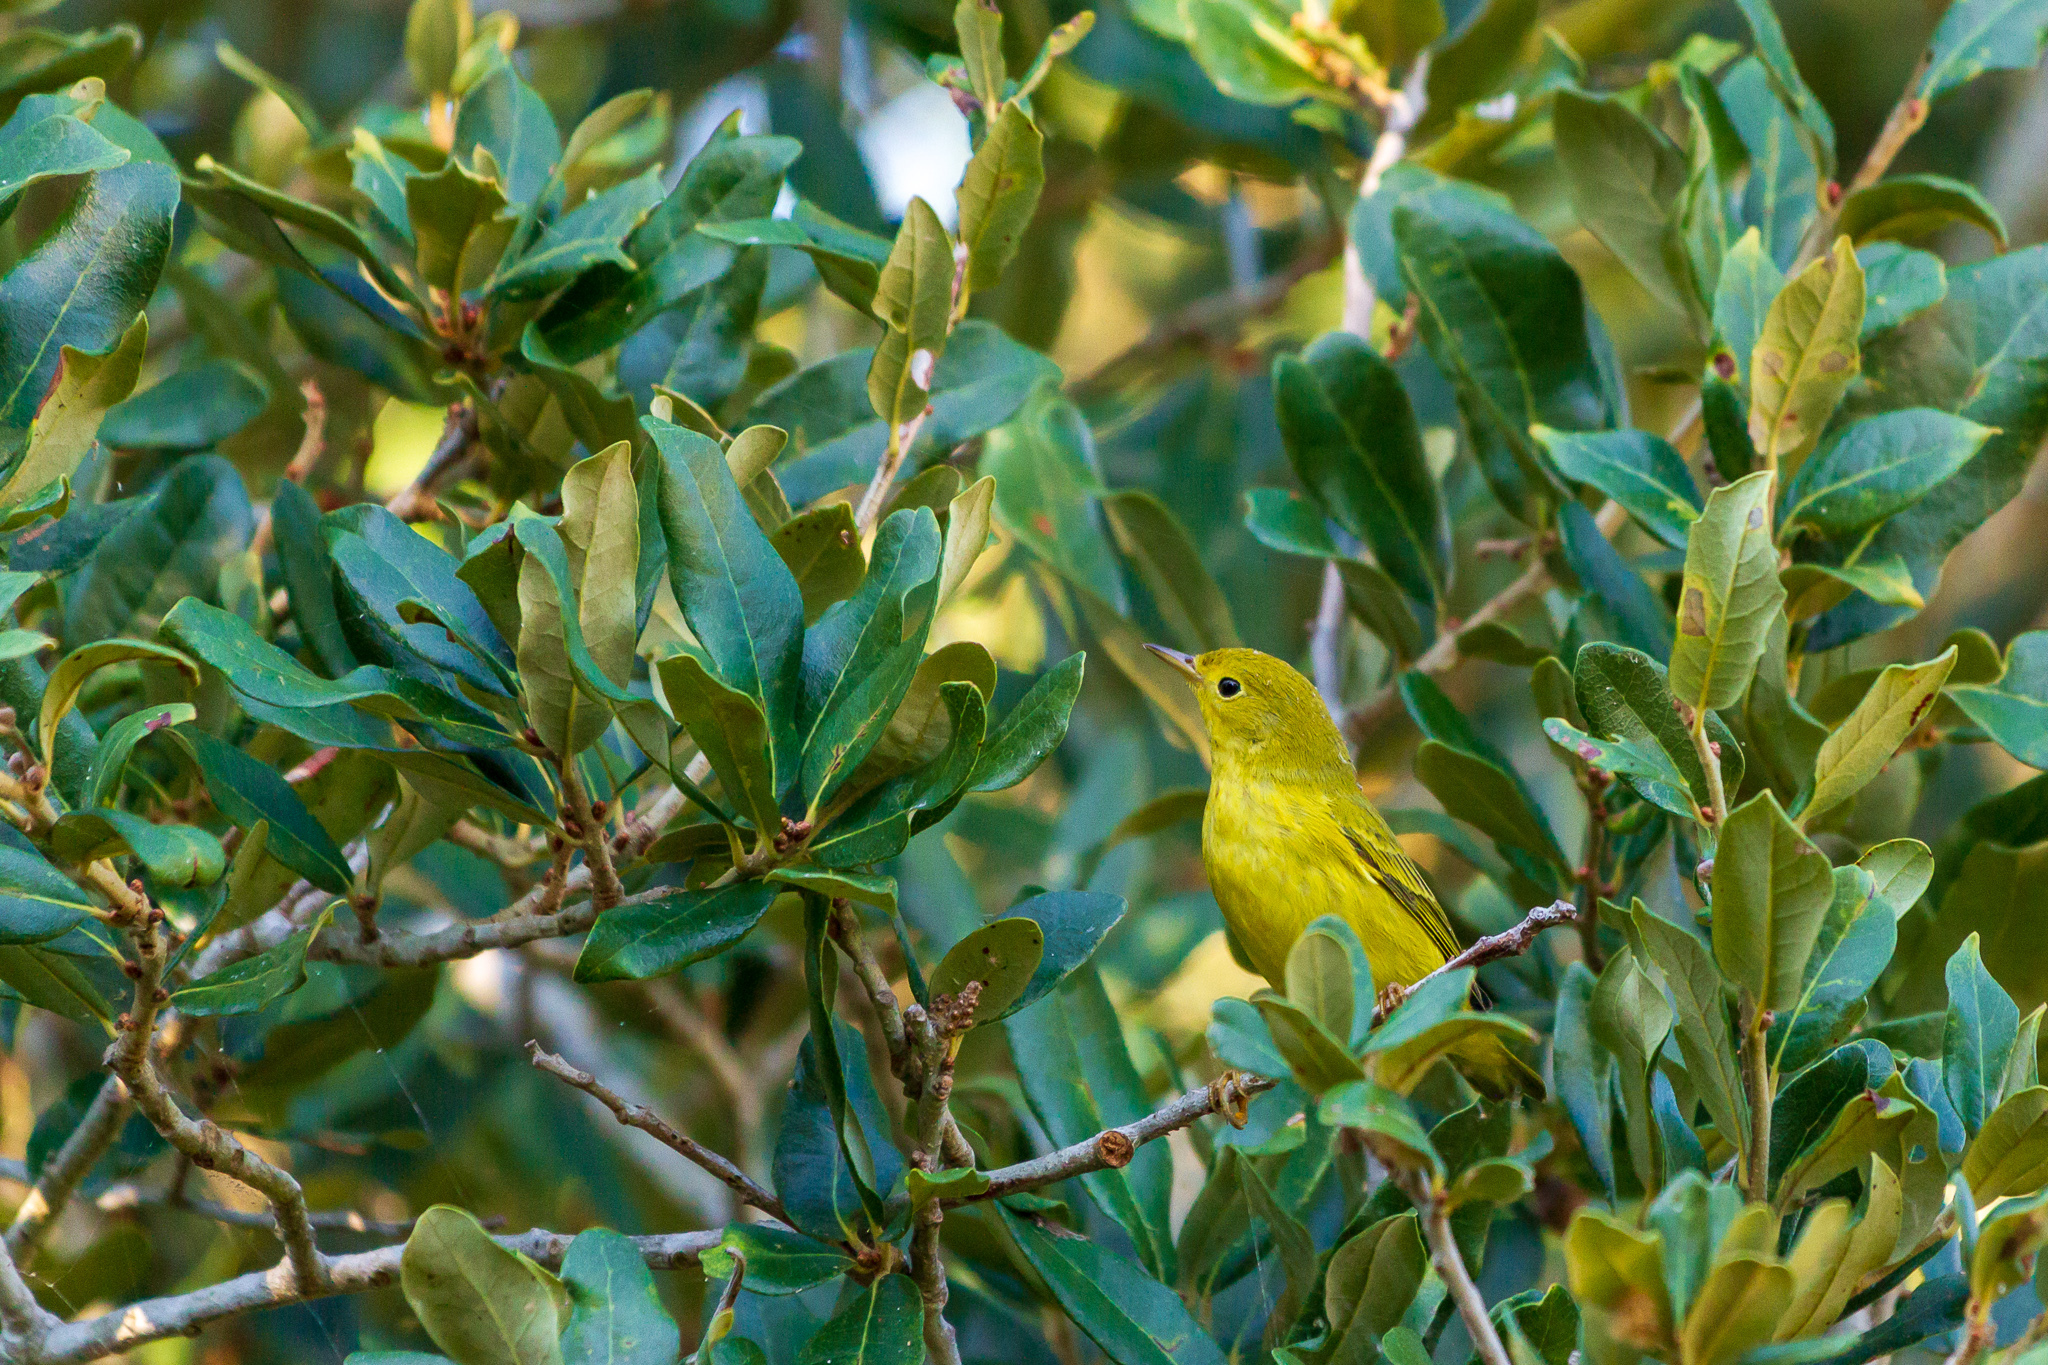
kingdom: Animalia
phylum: Chordata
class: Aves
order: Passeriformes
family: Parulidae
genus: Setophaga
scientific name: Setophaga petechia
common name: Yellow warbler
